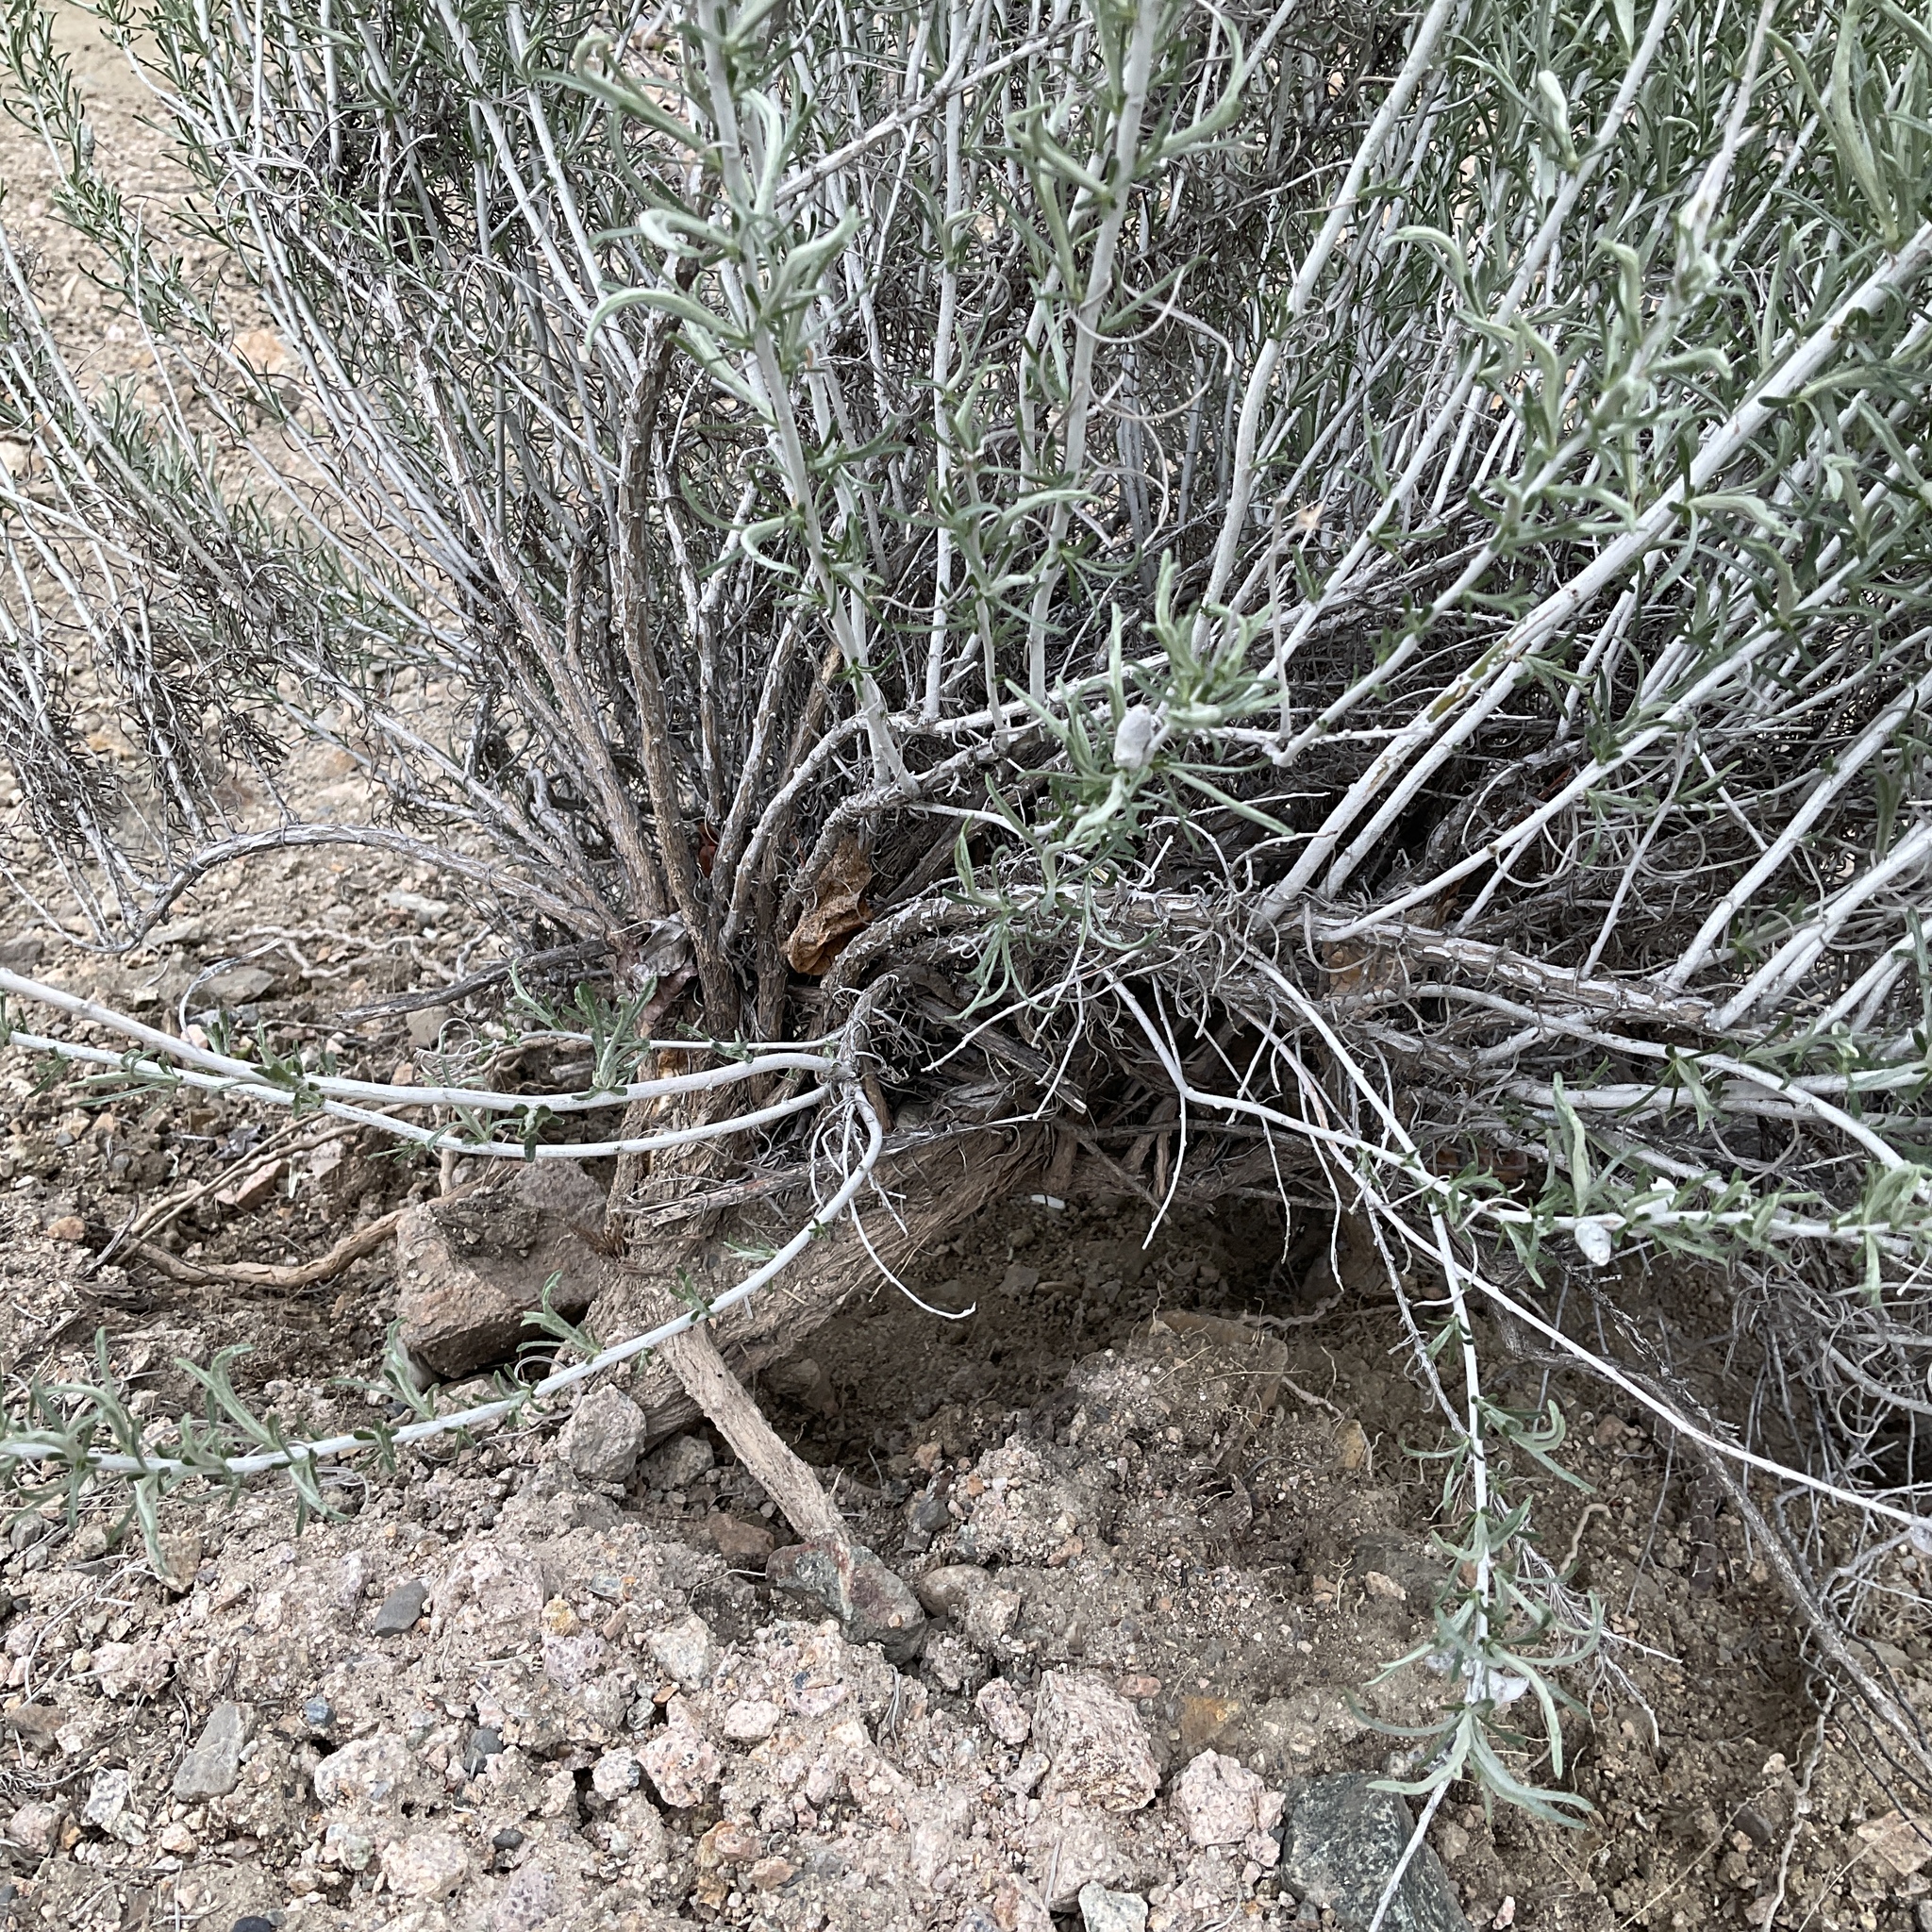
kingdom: Plantae
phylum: Tracheophyta
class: Magnoliopsida
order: Asterales
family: Asteraceae
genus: Ericameria
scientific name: Ericameria nauseosa
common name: Rubber rabbitbrush
